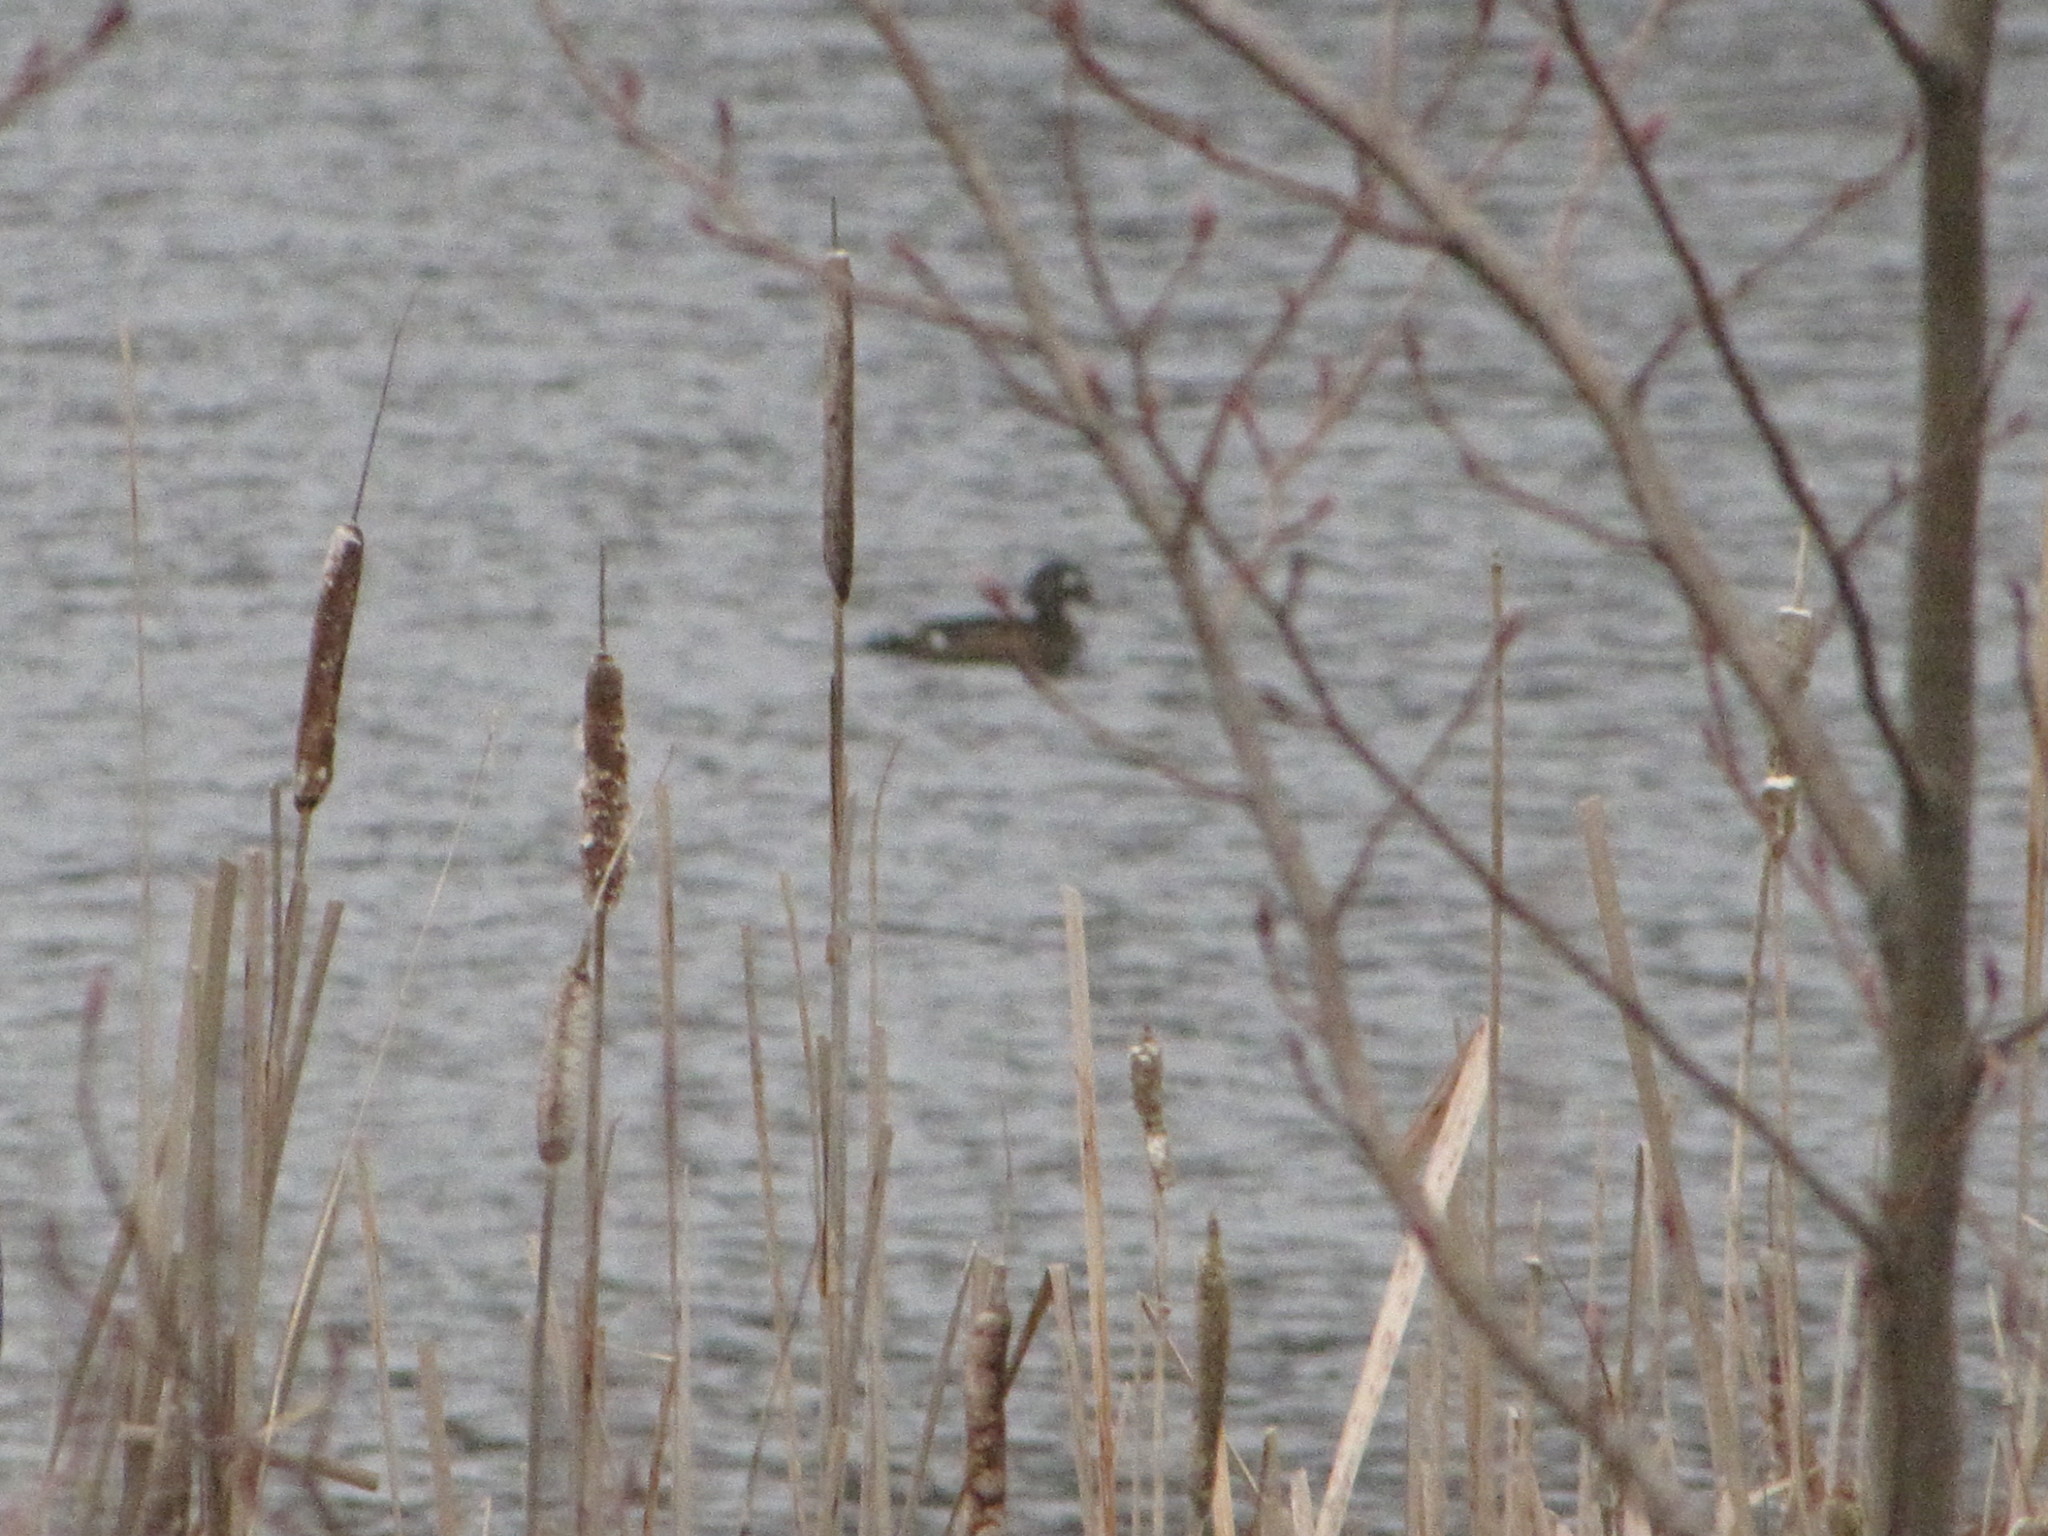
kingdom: Animalia
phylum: Chordata
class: Aves
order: Anseriformes
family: Anatidae
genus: Aix
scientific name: Aix sponsa
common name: Wood duck
